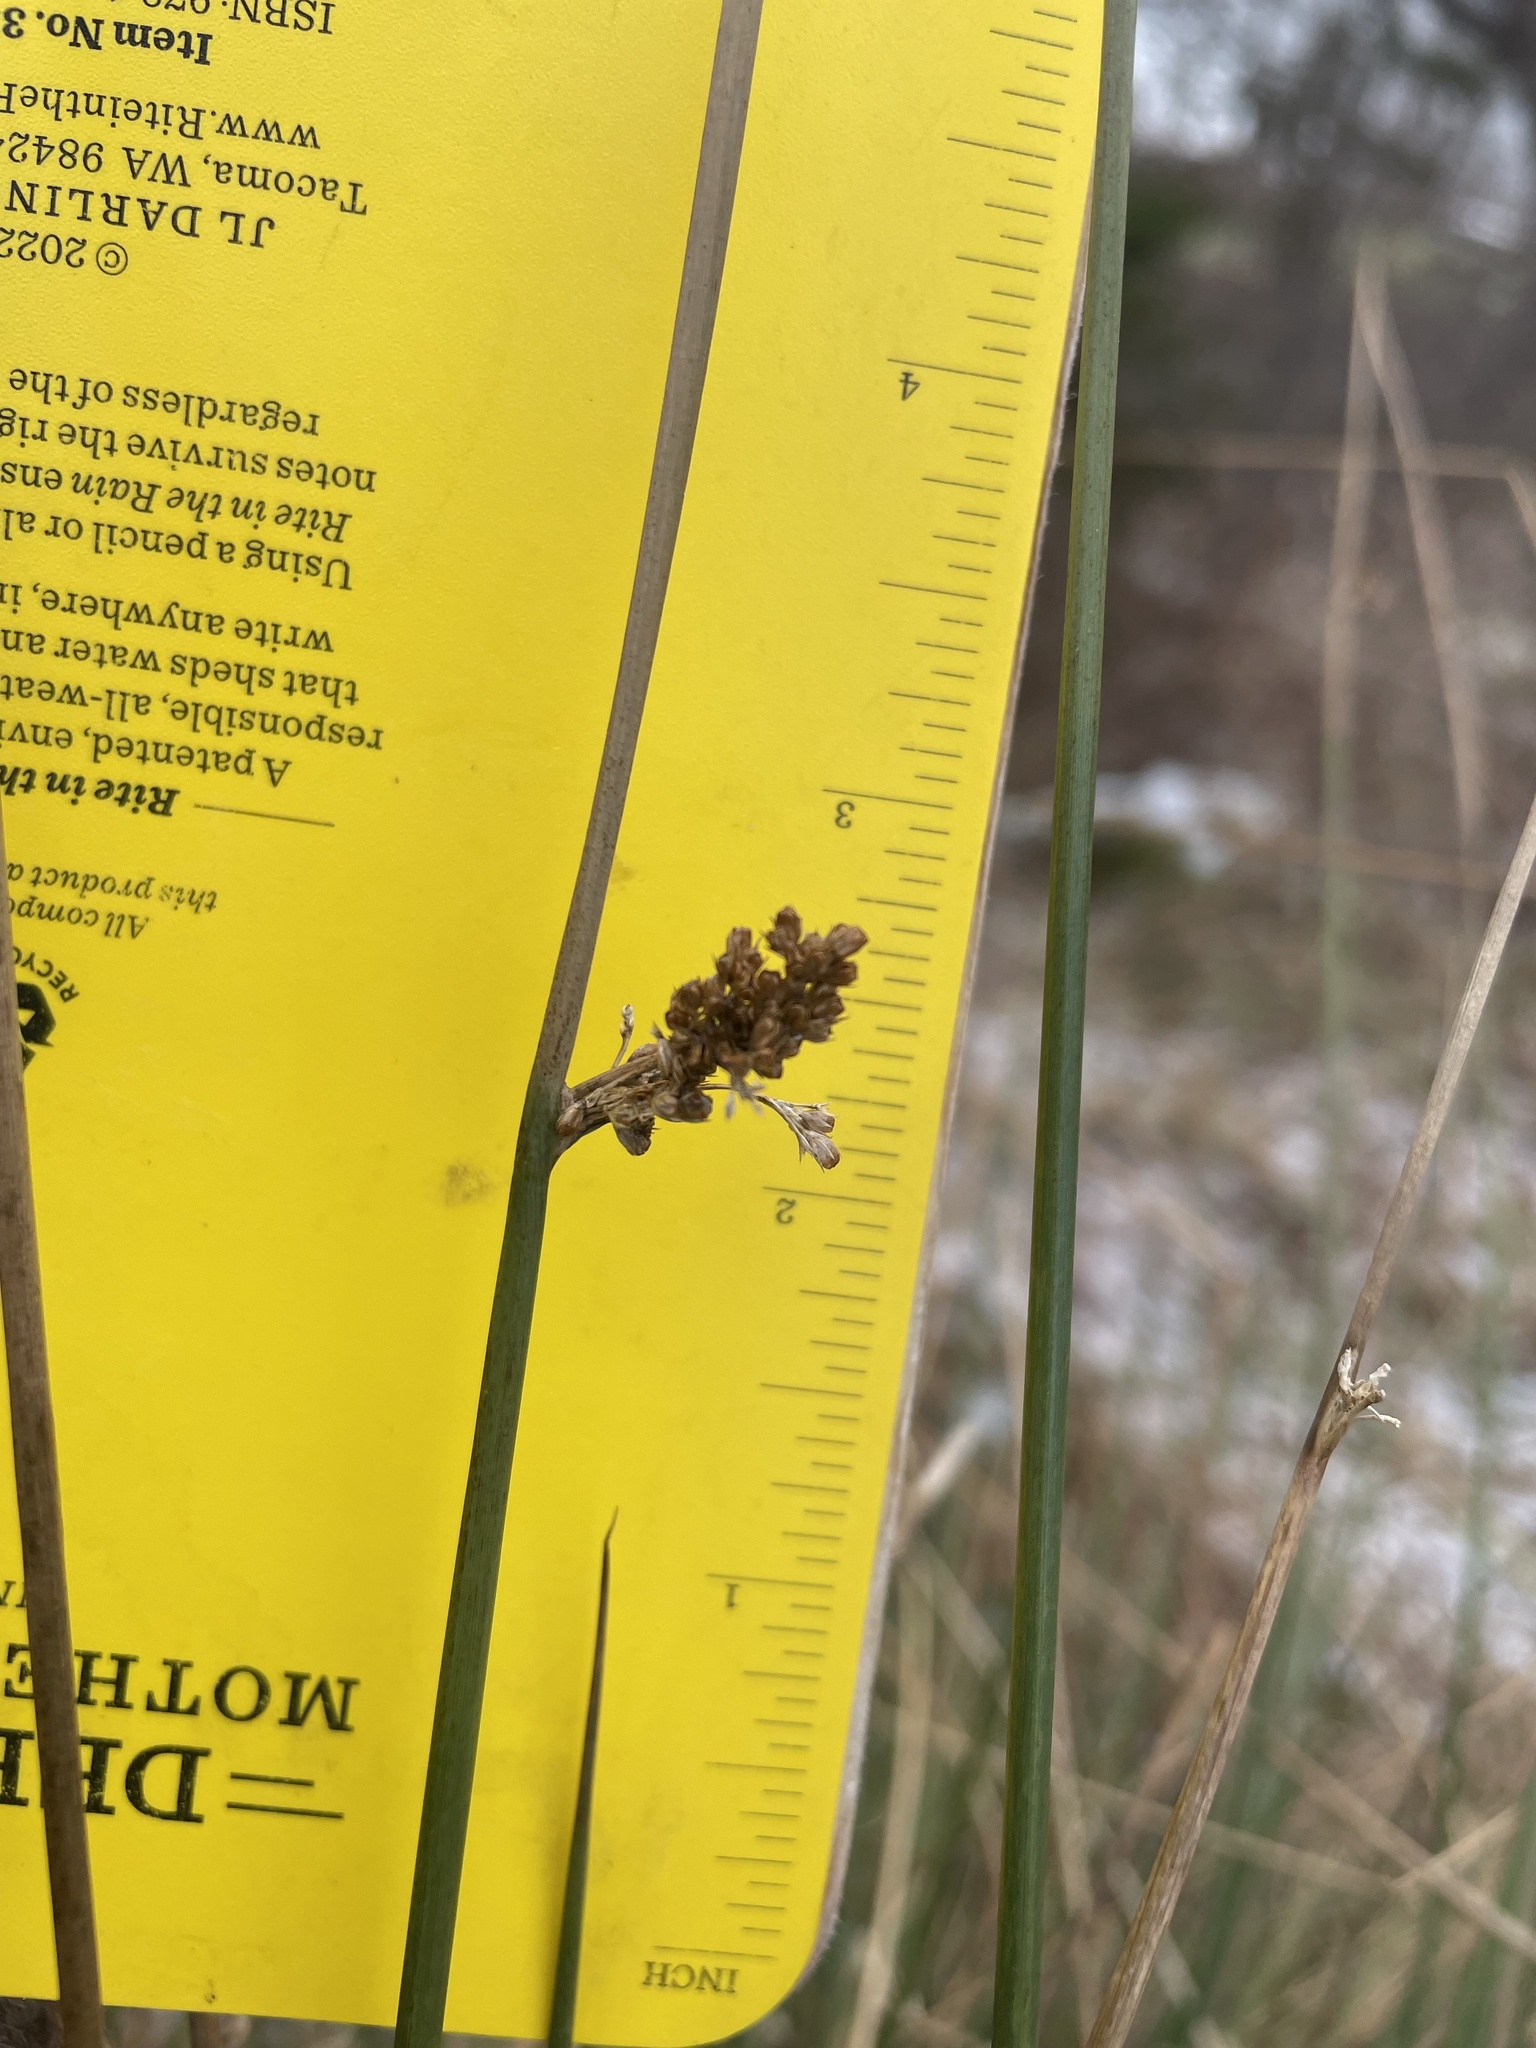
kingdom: Plantae
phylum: Tracheophyta
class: Liliopsida
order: Poales
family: Juncaceae
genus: Juncus
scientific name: Juncus effusus
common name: Soft rush
